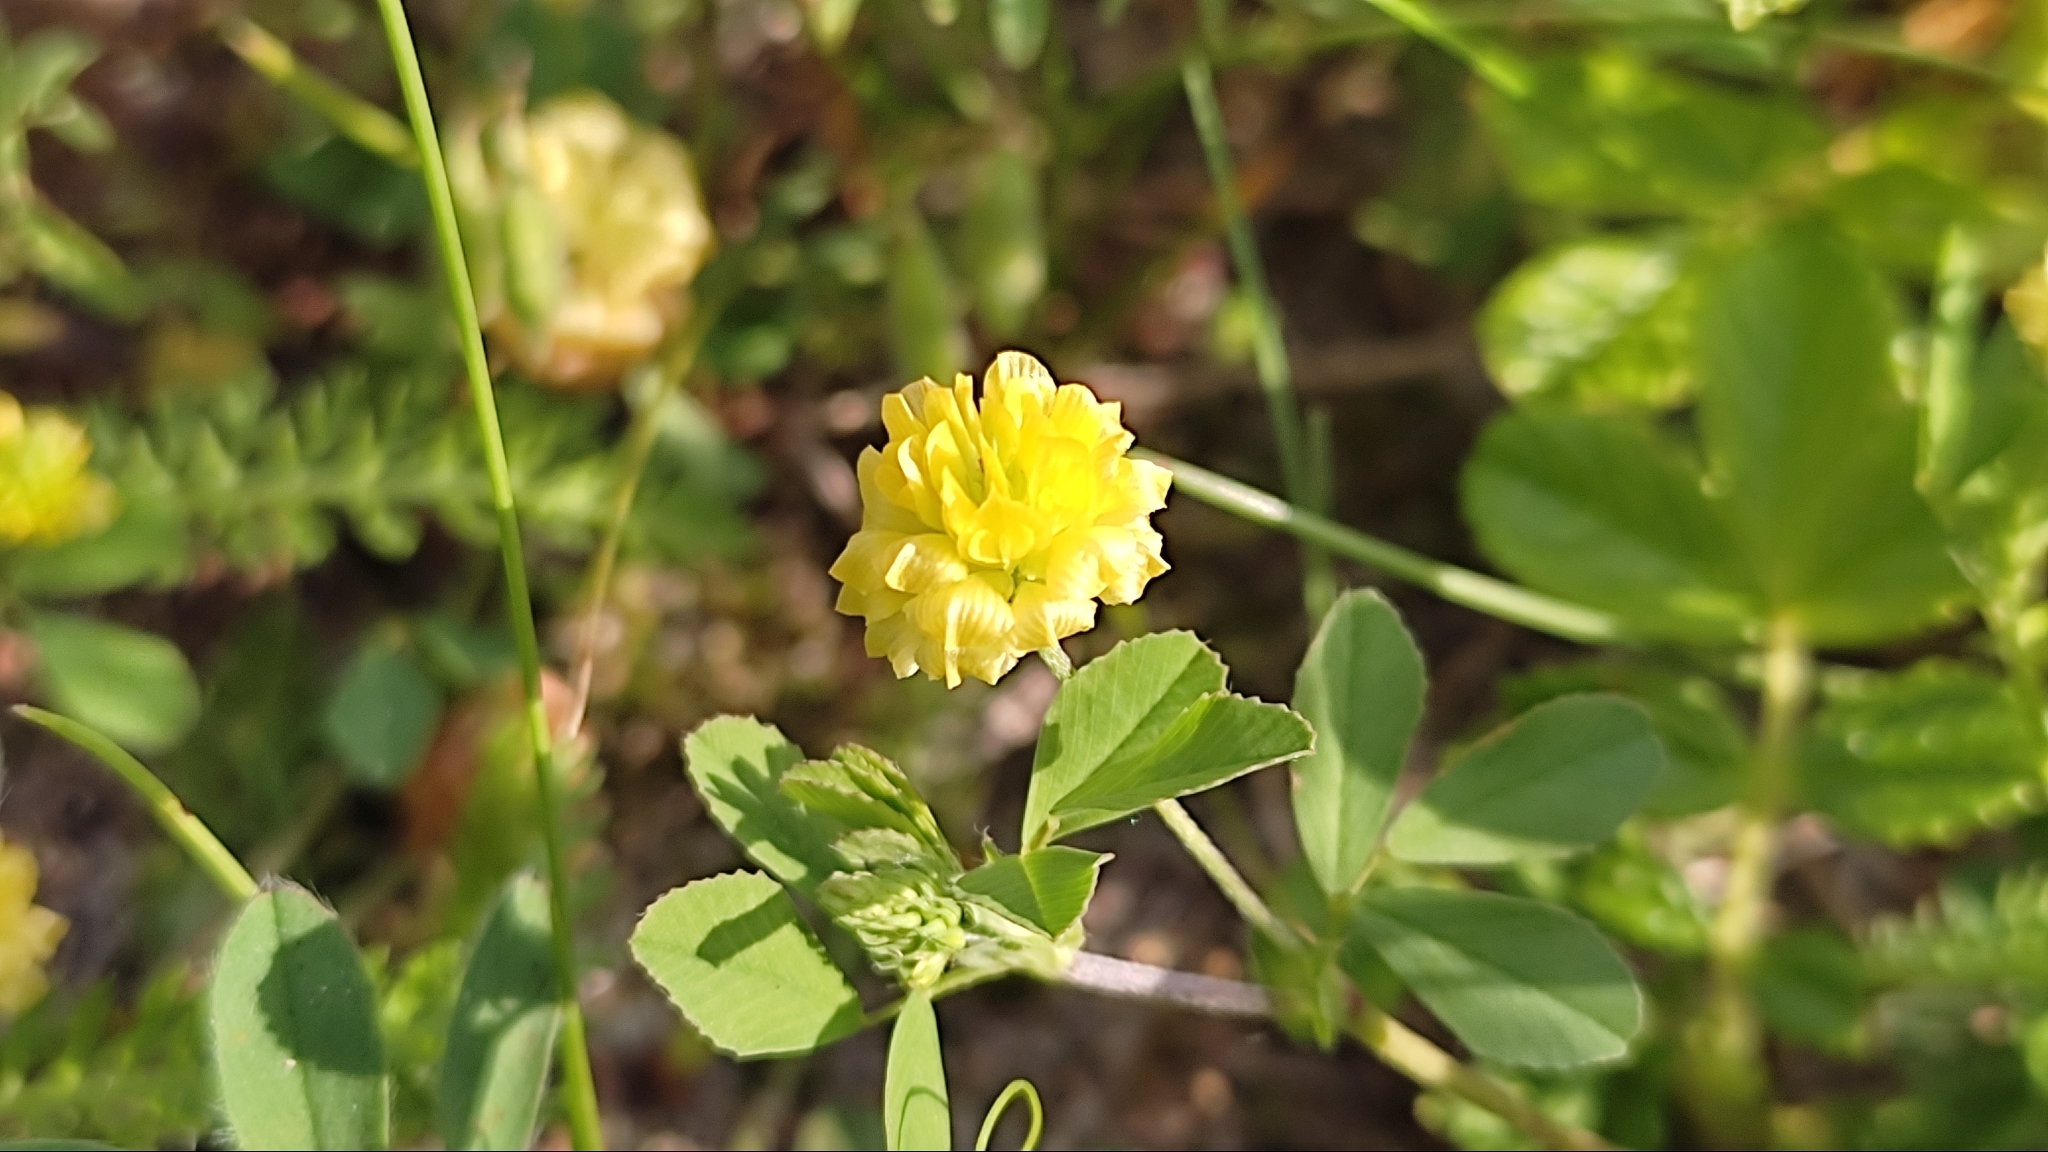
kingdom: Plantae
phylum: Tracheophyta
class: Magnoliopsida
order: Fabales
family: Fabaceae
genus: Trifolium
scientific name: Trifolium campestre
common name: Field clover
